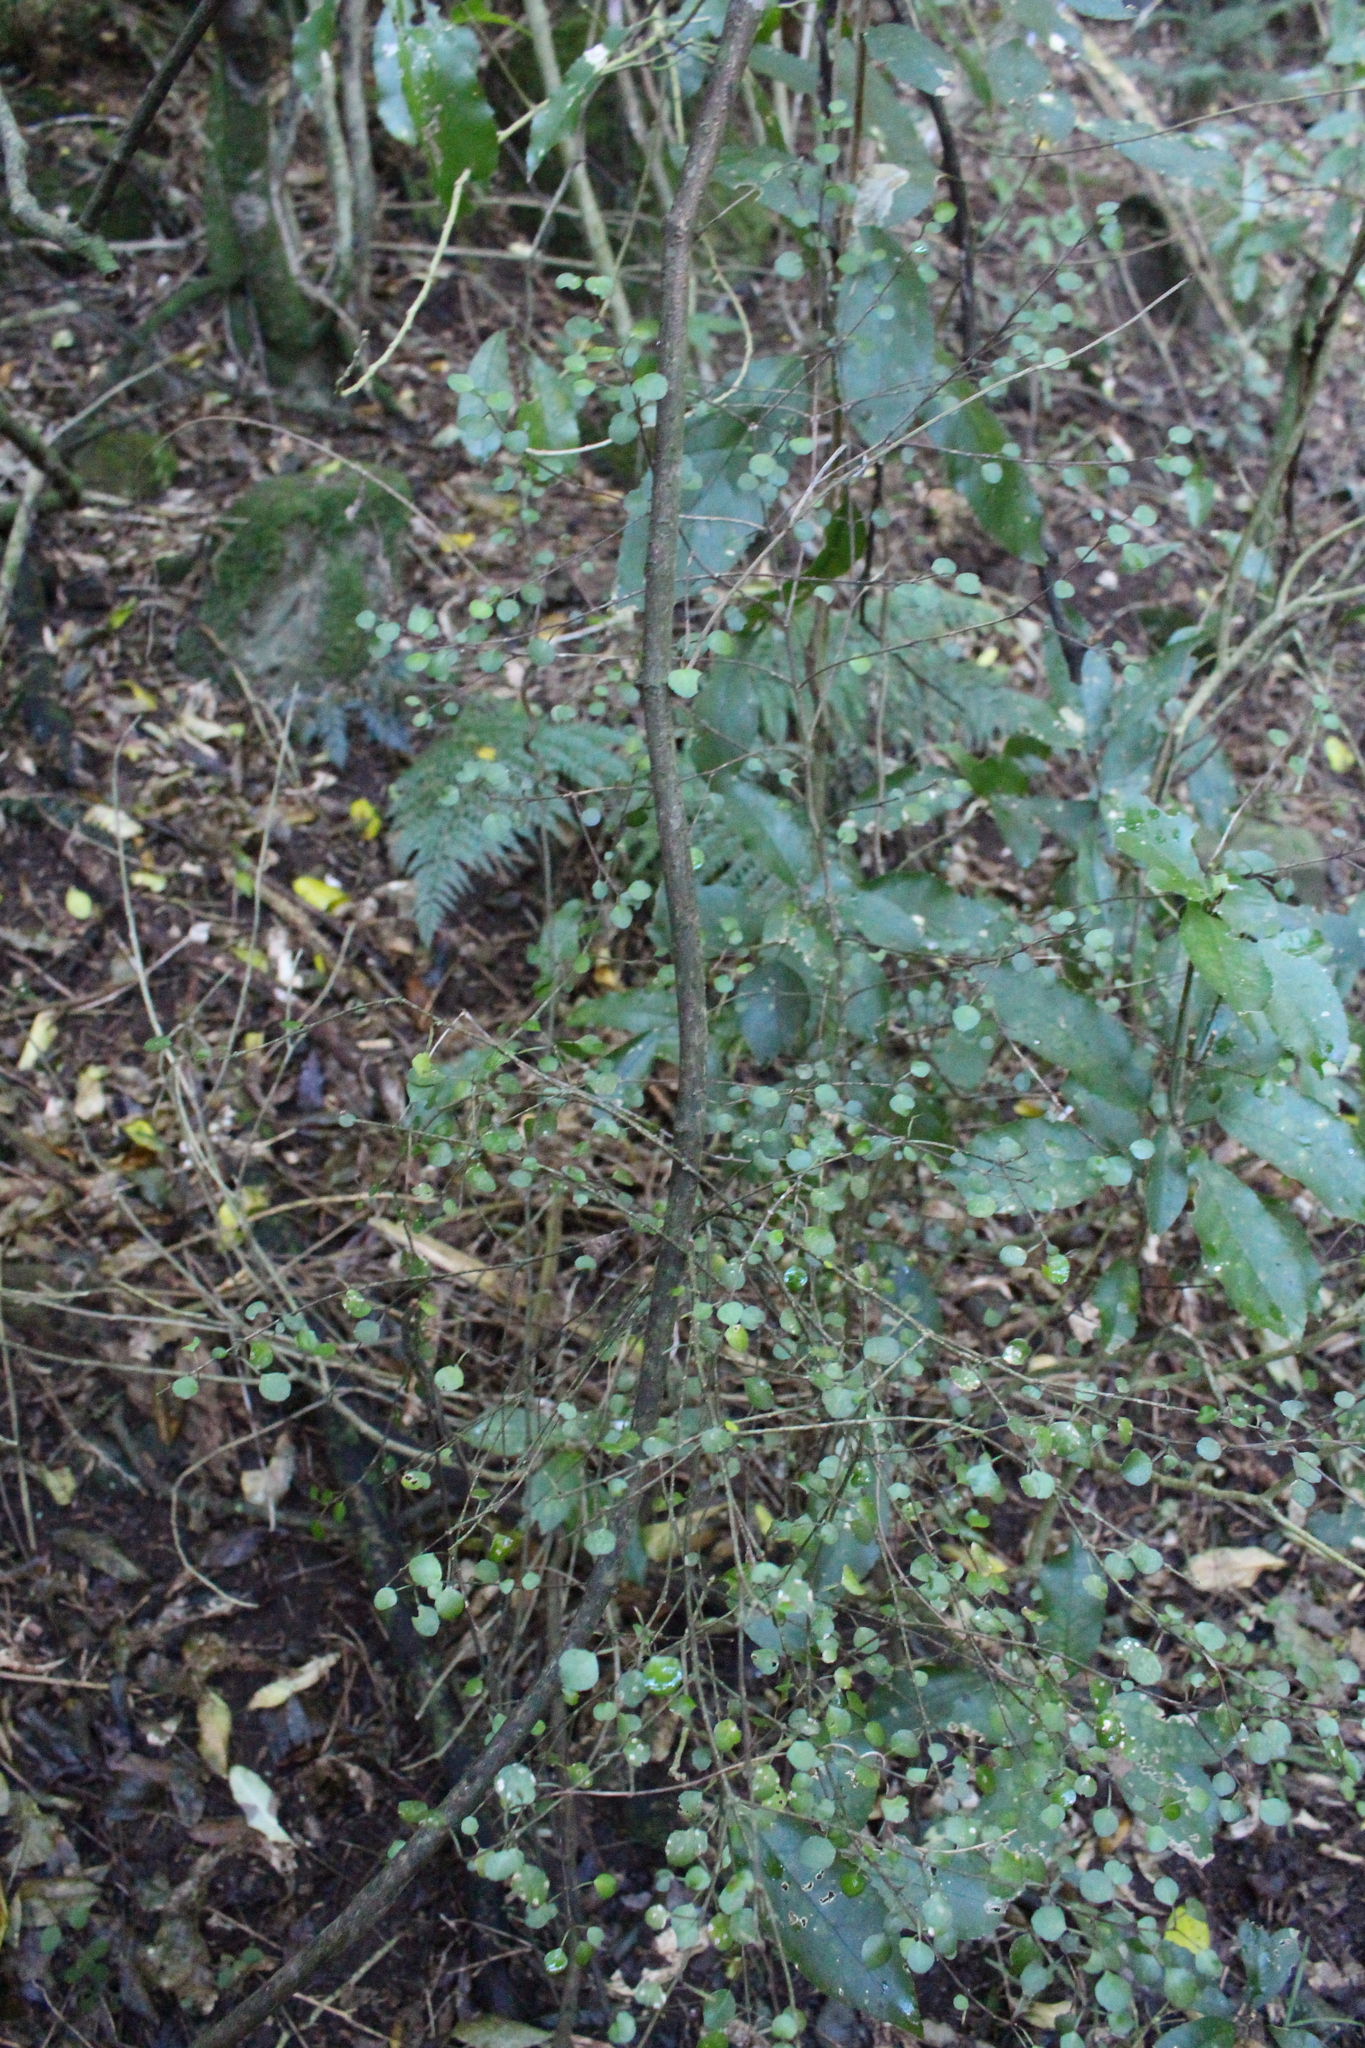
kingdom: Plantae
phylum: Tracheophyta
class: Magnoliopsida
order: Sapindales
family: Rutaceae
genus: Melicope
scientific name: Melicope simplex
